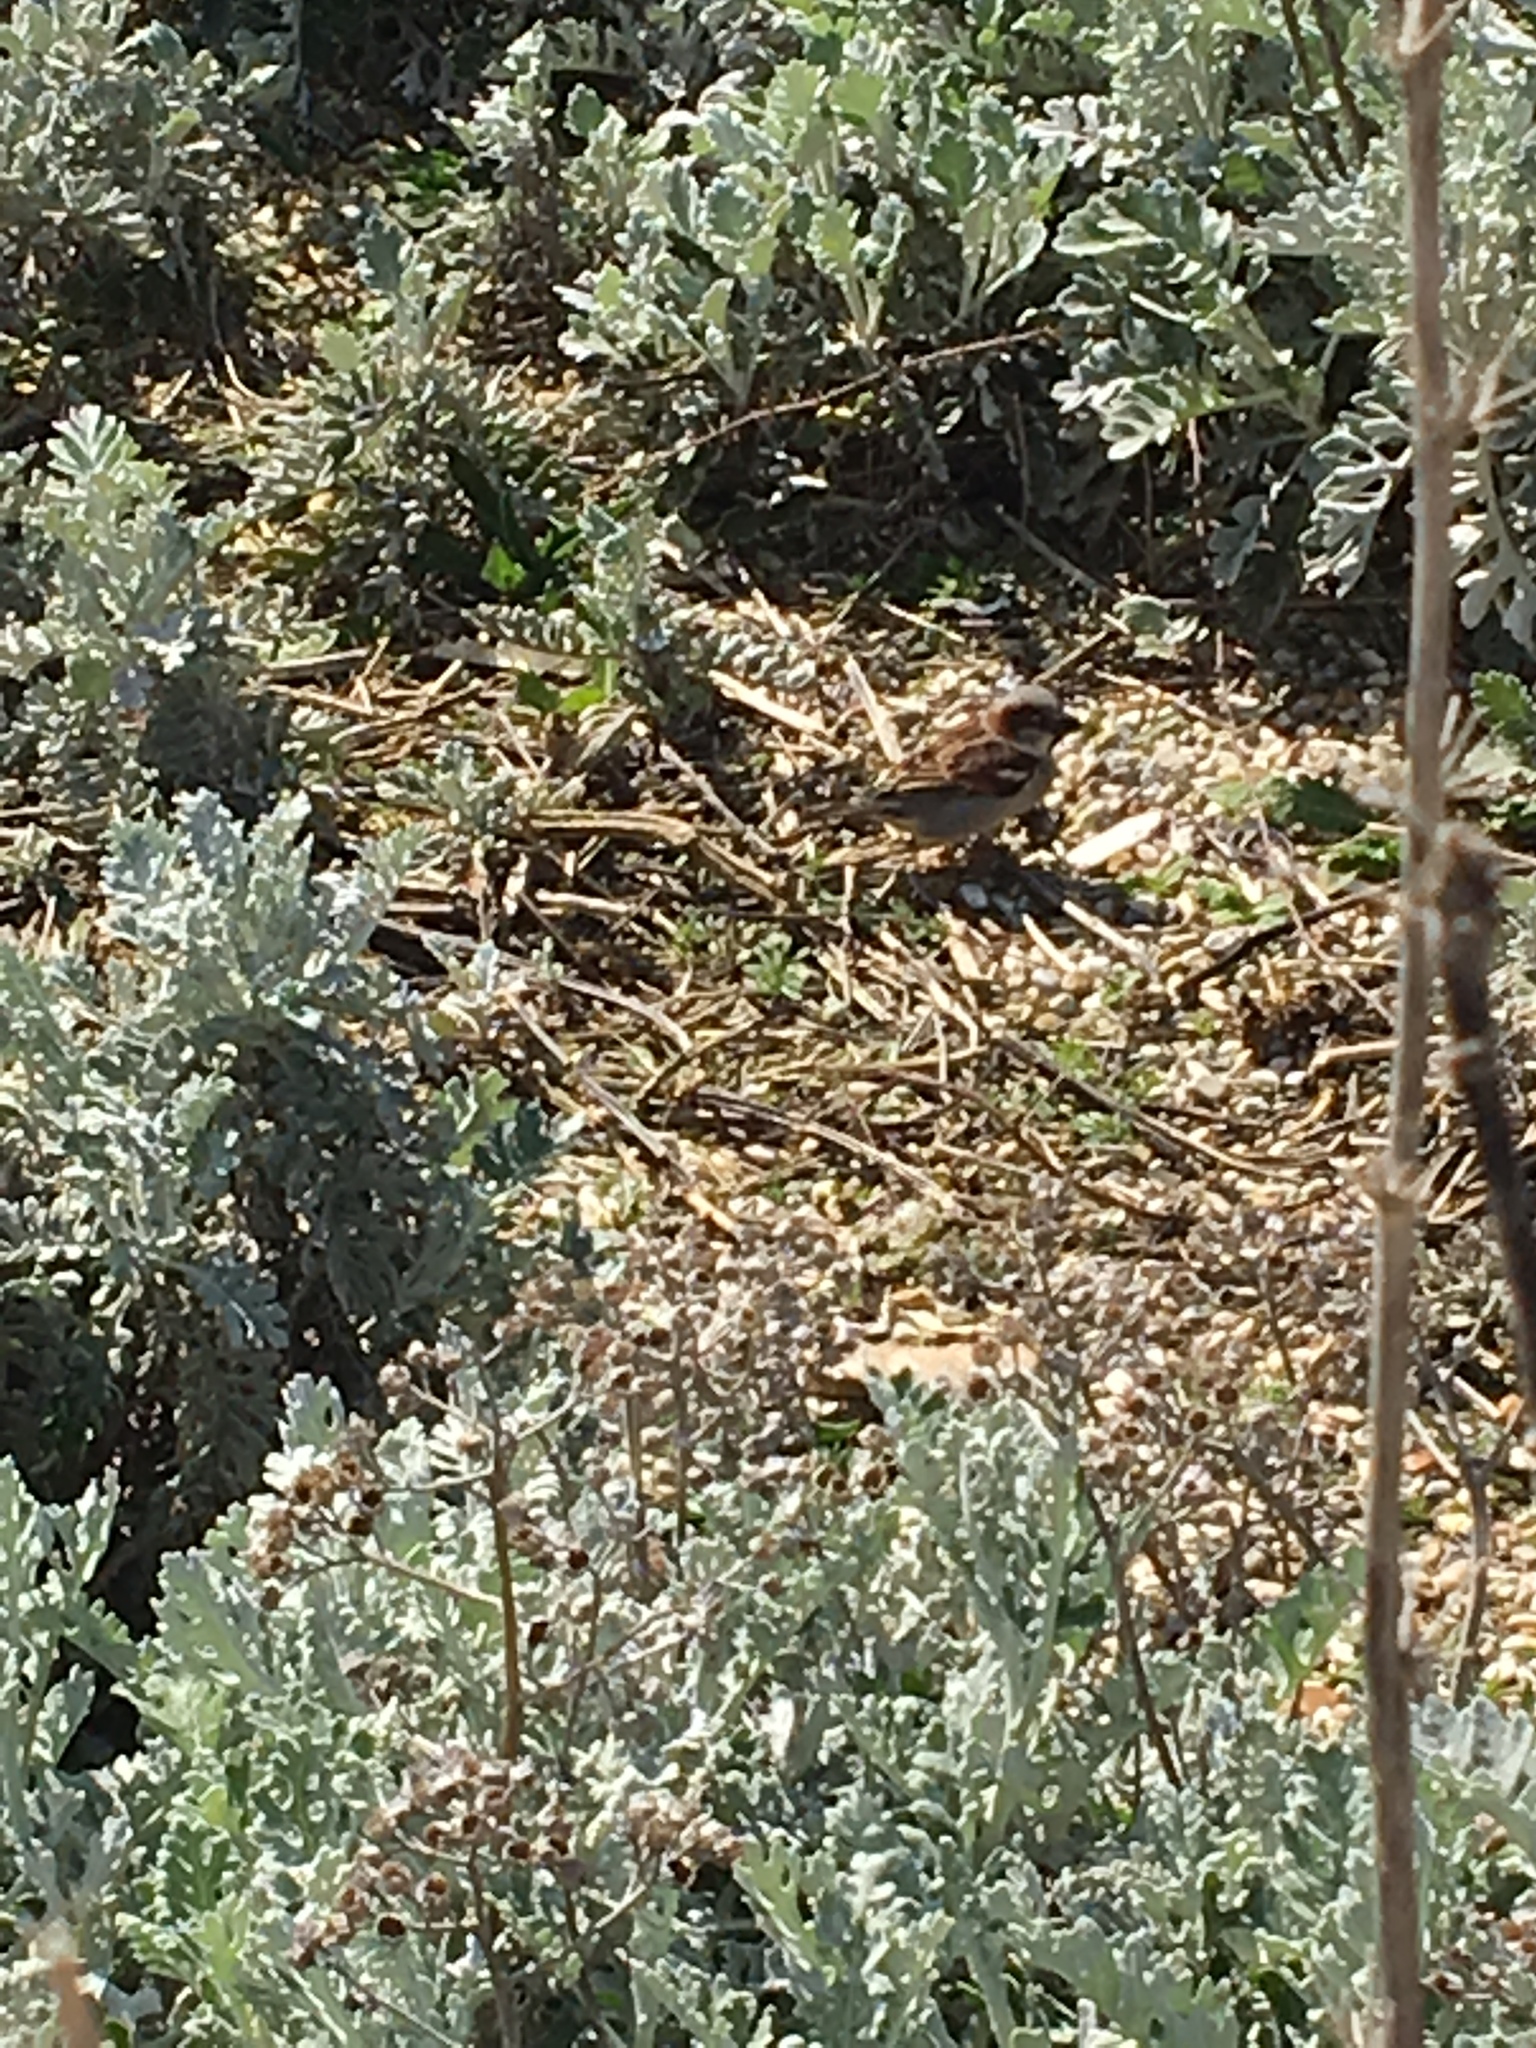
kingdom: Animalia
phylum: Chordata
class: Aves
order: Passeriformes
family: Passeridae
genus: Passer
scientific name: Passer domesticus
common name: House sparrow
